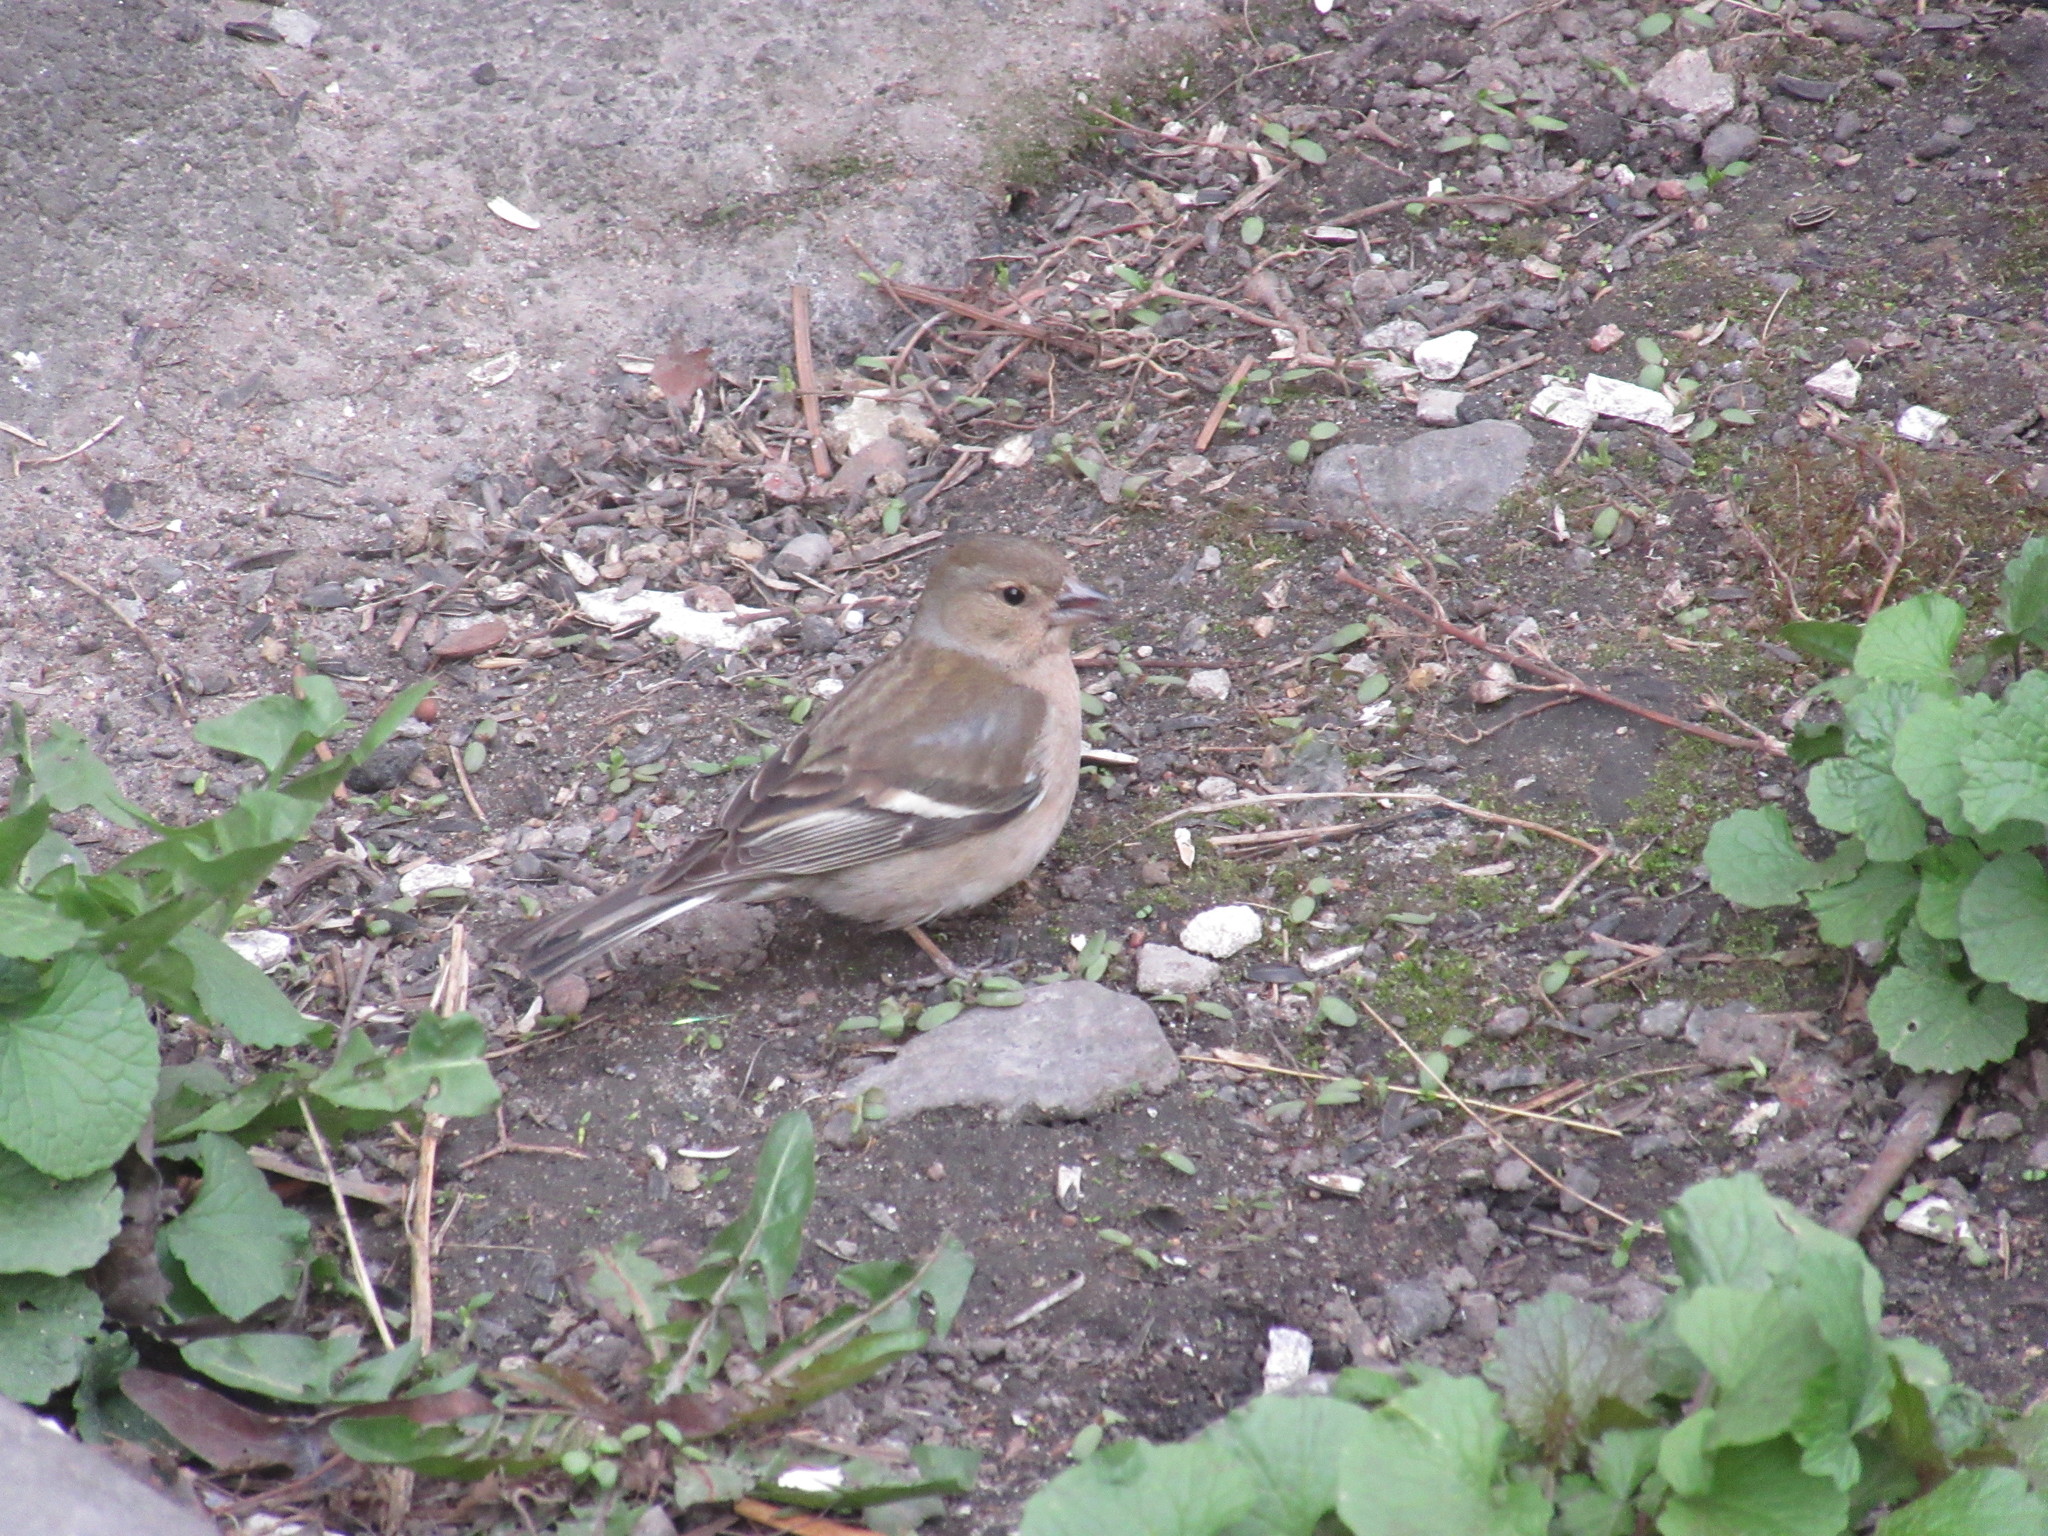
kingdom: Animalia
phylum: Chordata
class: Aves
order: Passeriformes
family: Fringillidae
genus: Fringilla
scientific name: Fringilla coelebs
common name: Common chaffinch
